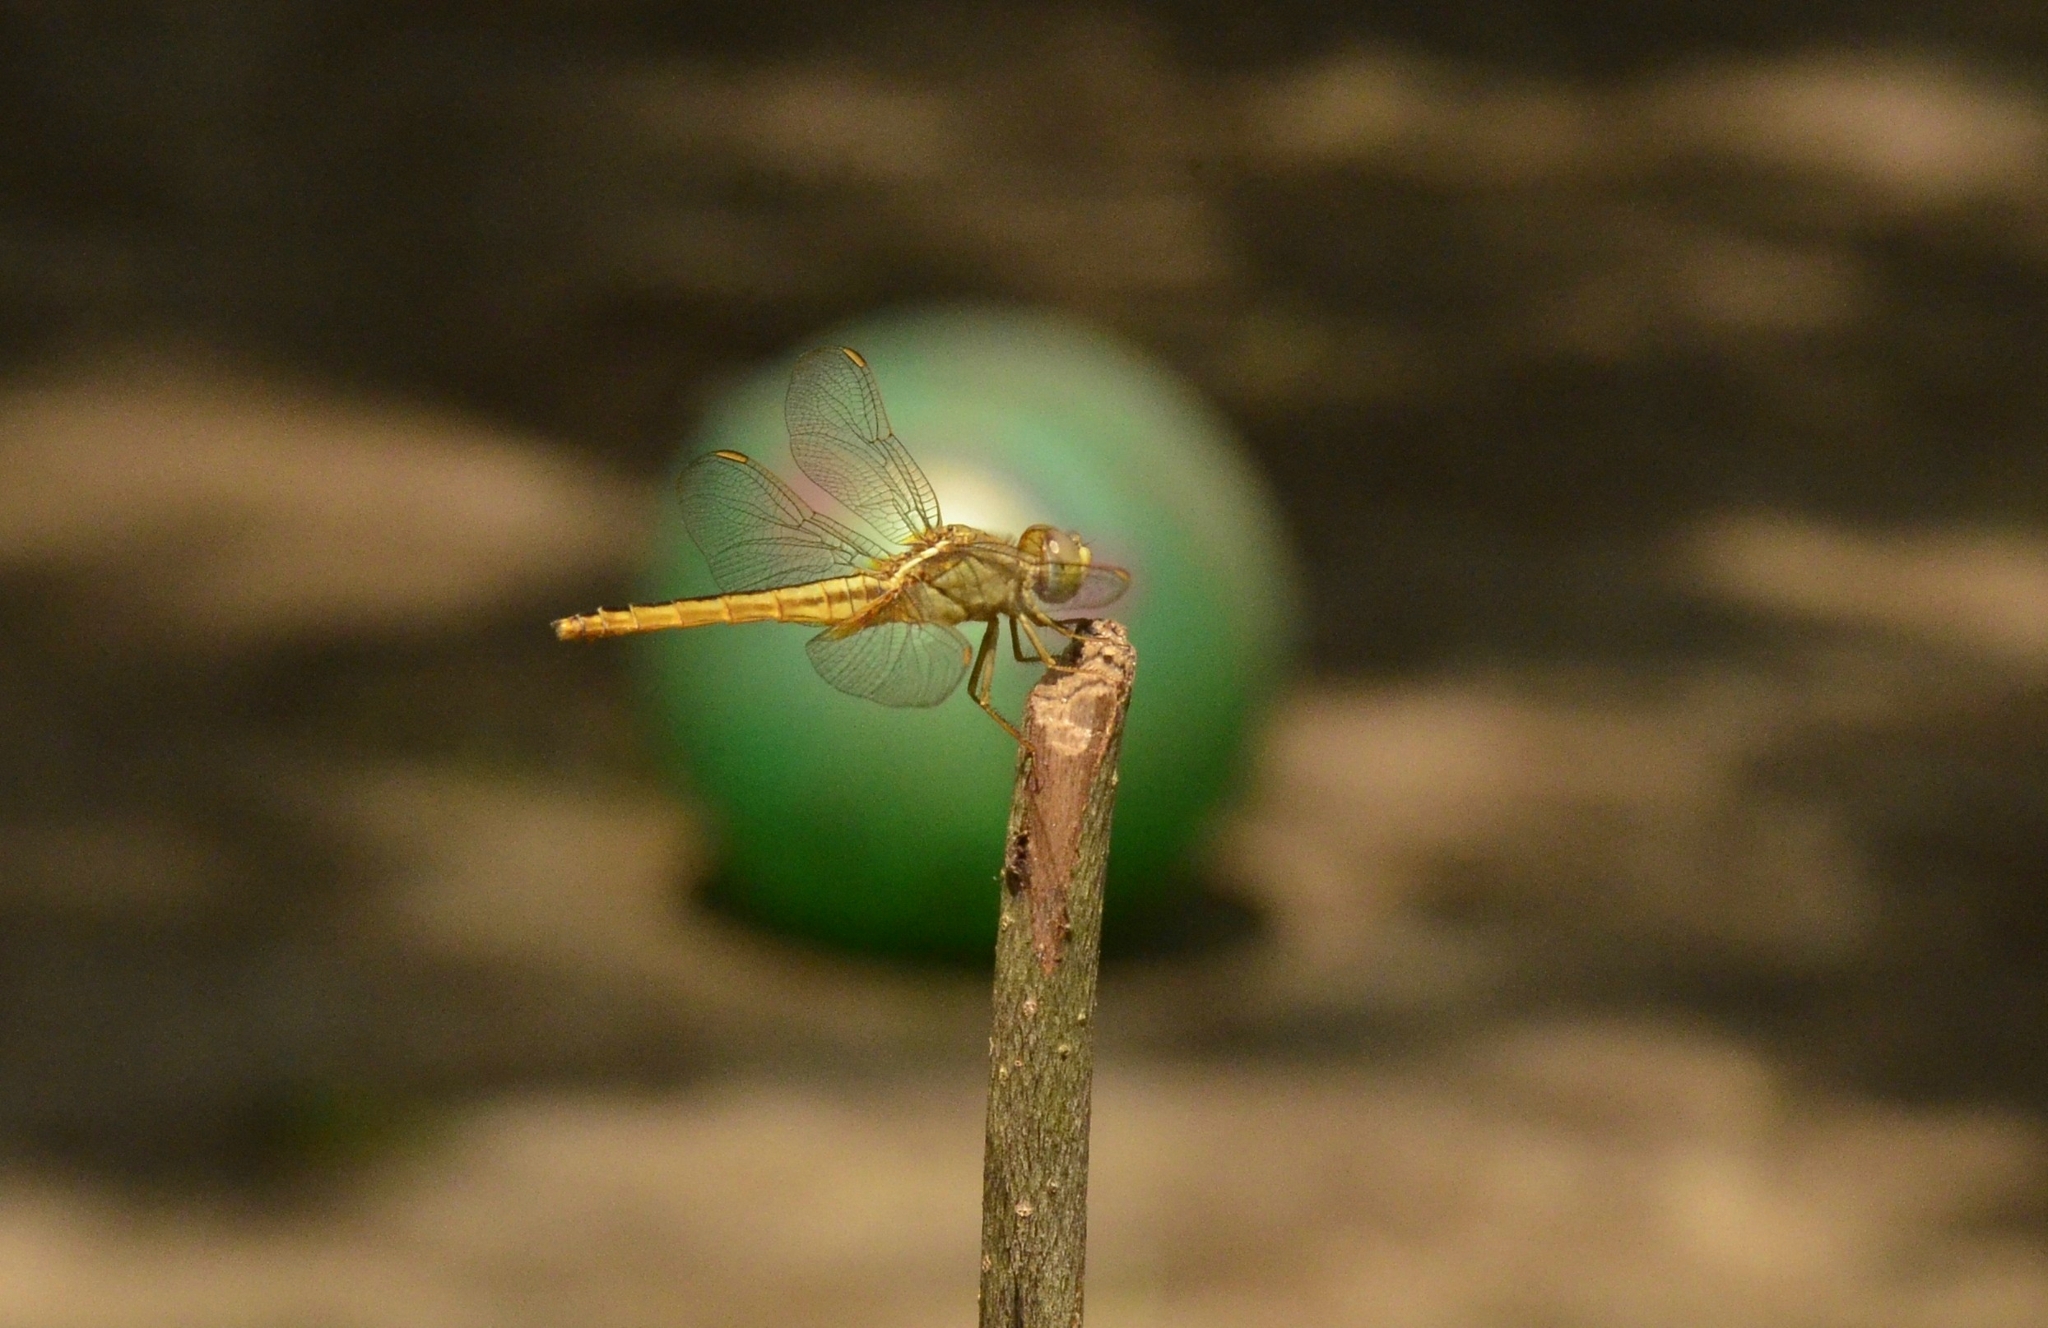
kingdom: Animalia
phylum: Arthropoda
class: Insecta
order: Odonata
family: Libellulidae
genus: Crocothemis
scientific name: Crocothemis servilia
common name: Scarlet skimmer
